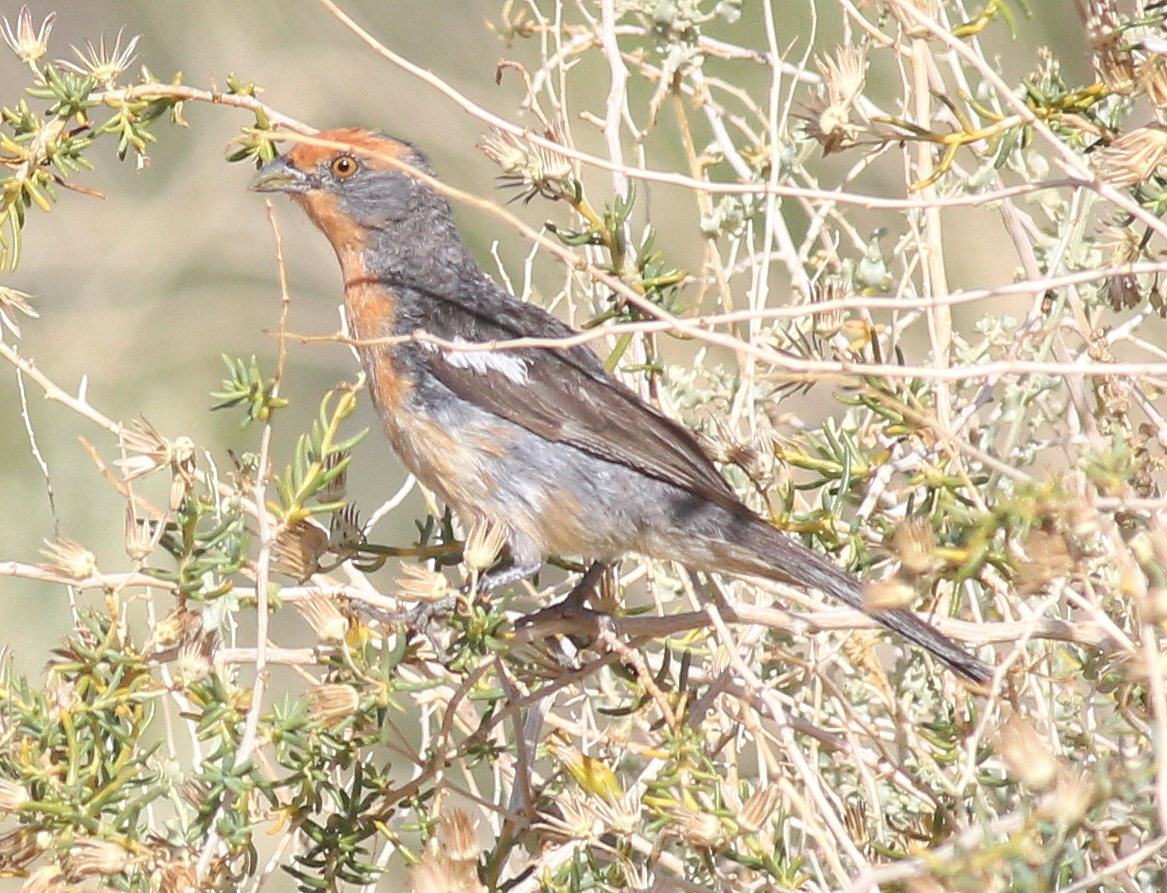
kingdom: Animalia
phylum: Chordata
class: Aves
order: Passeriformes
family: Cotingidae
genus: Phytotoma
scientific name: Phytotoma rutila
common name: White-tipped plantcutter
